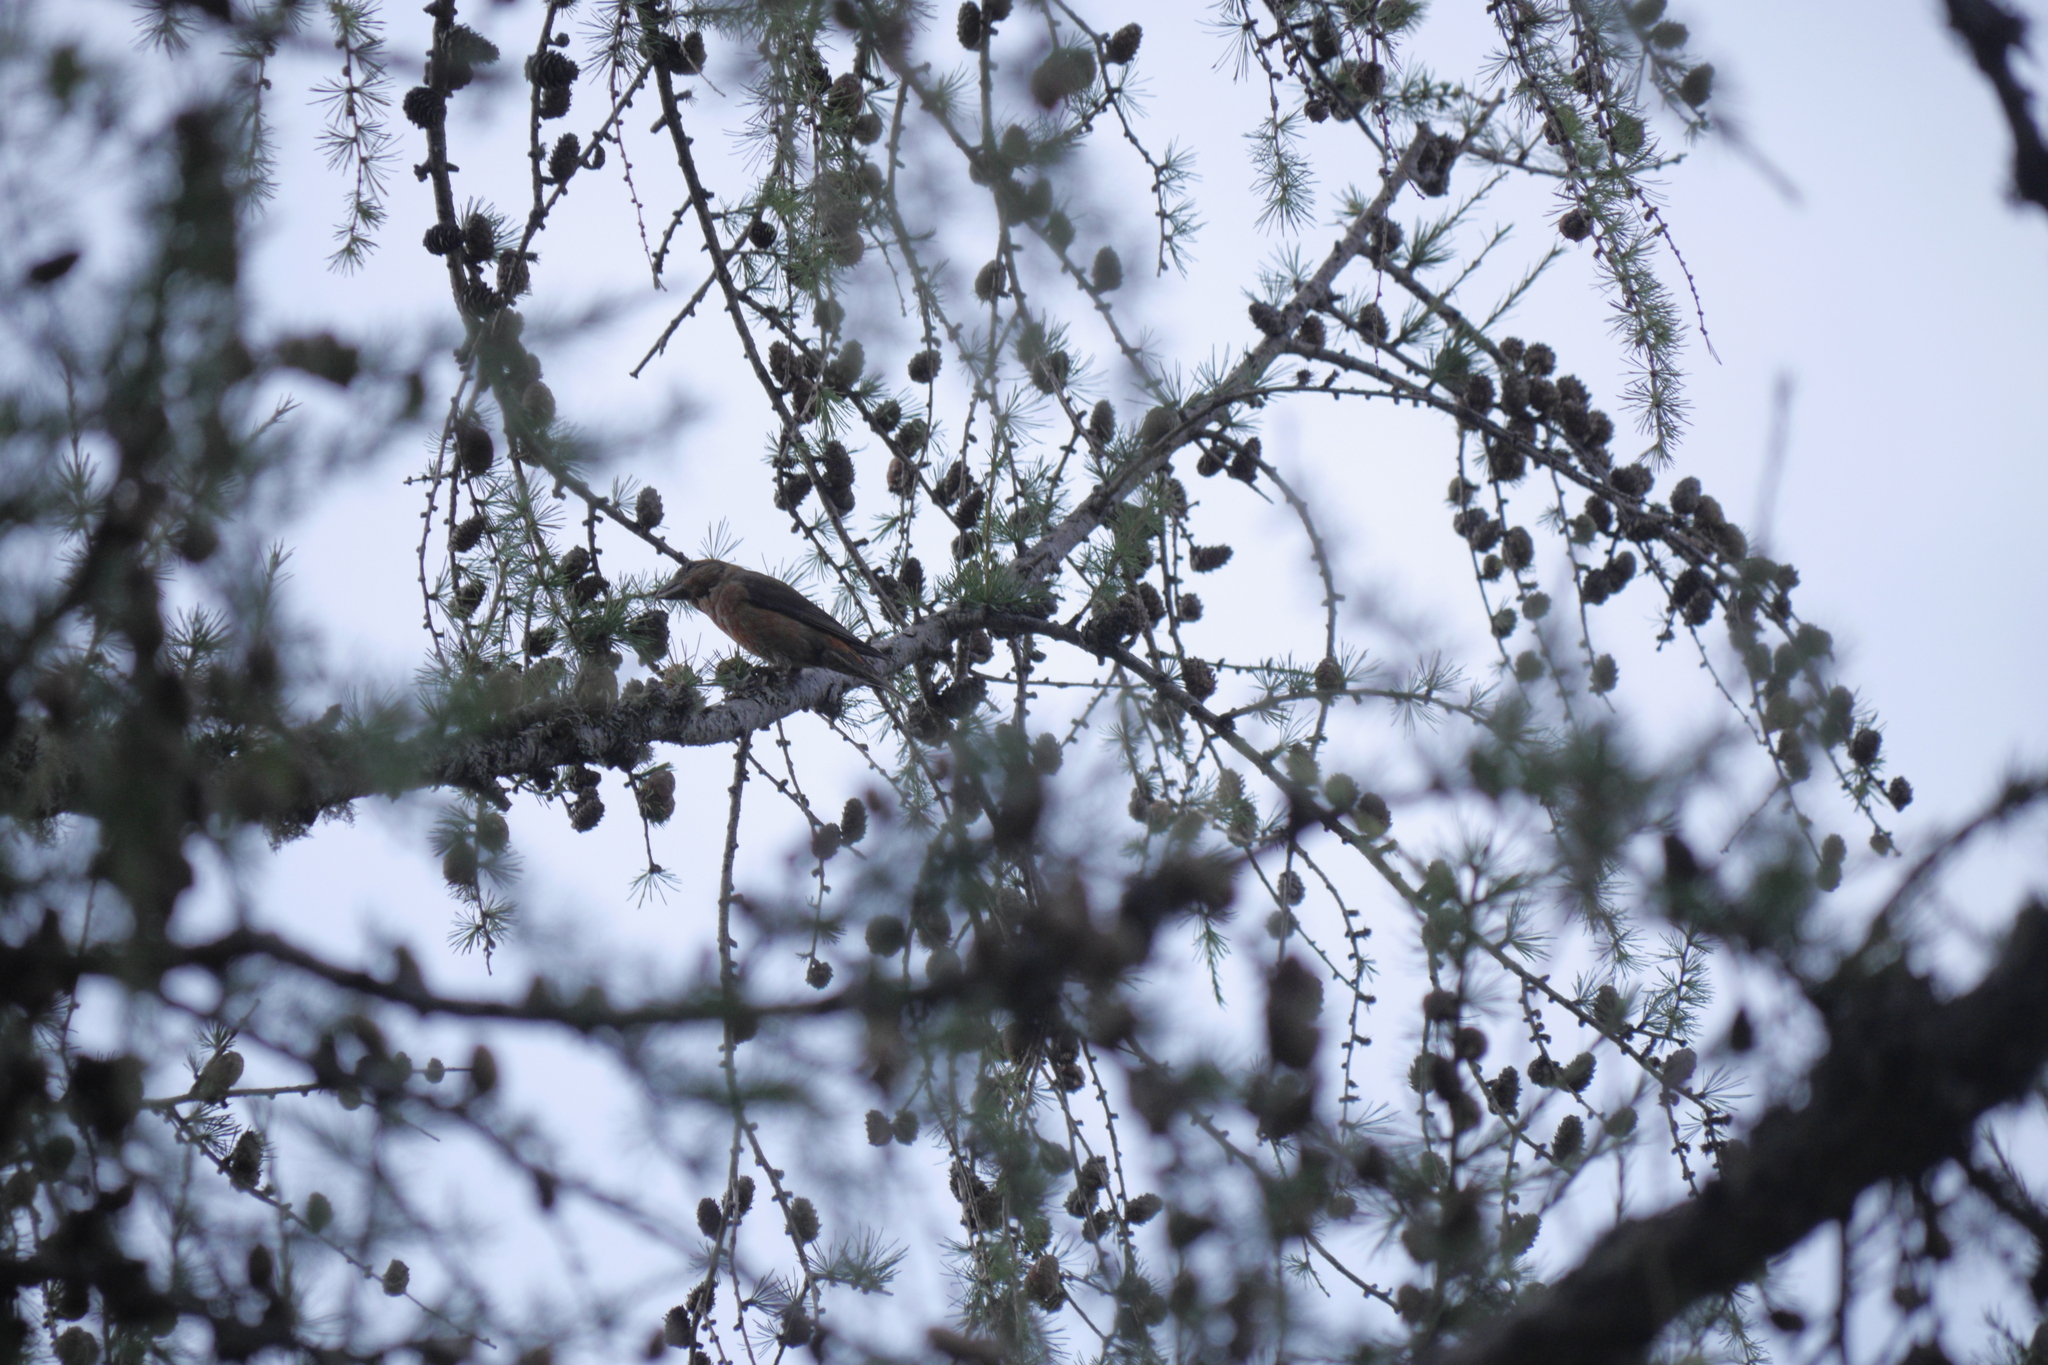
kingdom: Animalia
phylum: Chordata
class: Aves
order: Passeriformes
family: Fringillidae
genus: Loxia
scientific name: Loxia curvirostra
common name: Red crossbill
